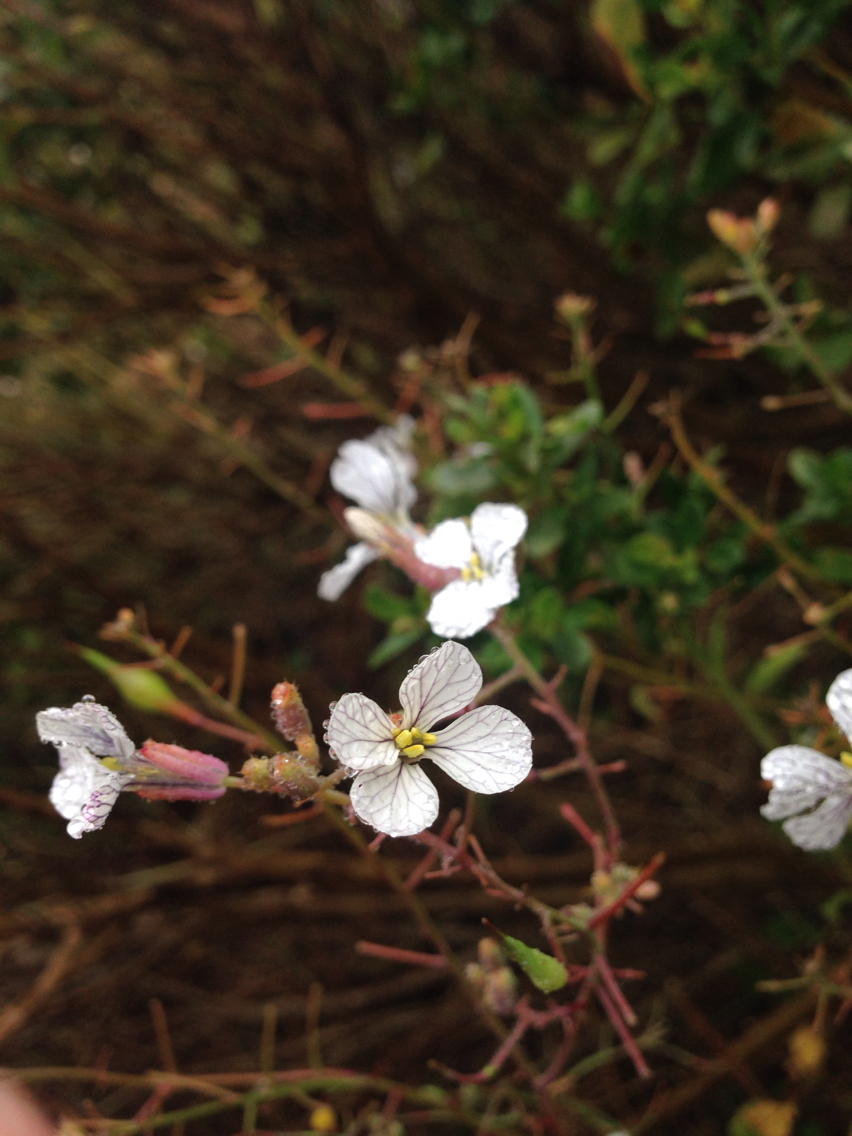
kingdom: Plantae
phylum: Tracheophyta
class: Magnoliopsida
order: Brassicales
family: Brassicaceae
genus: Raphanus
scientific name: Raphanus sativus
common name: Cultivated radish
